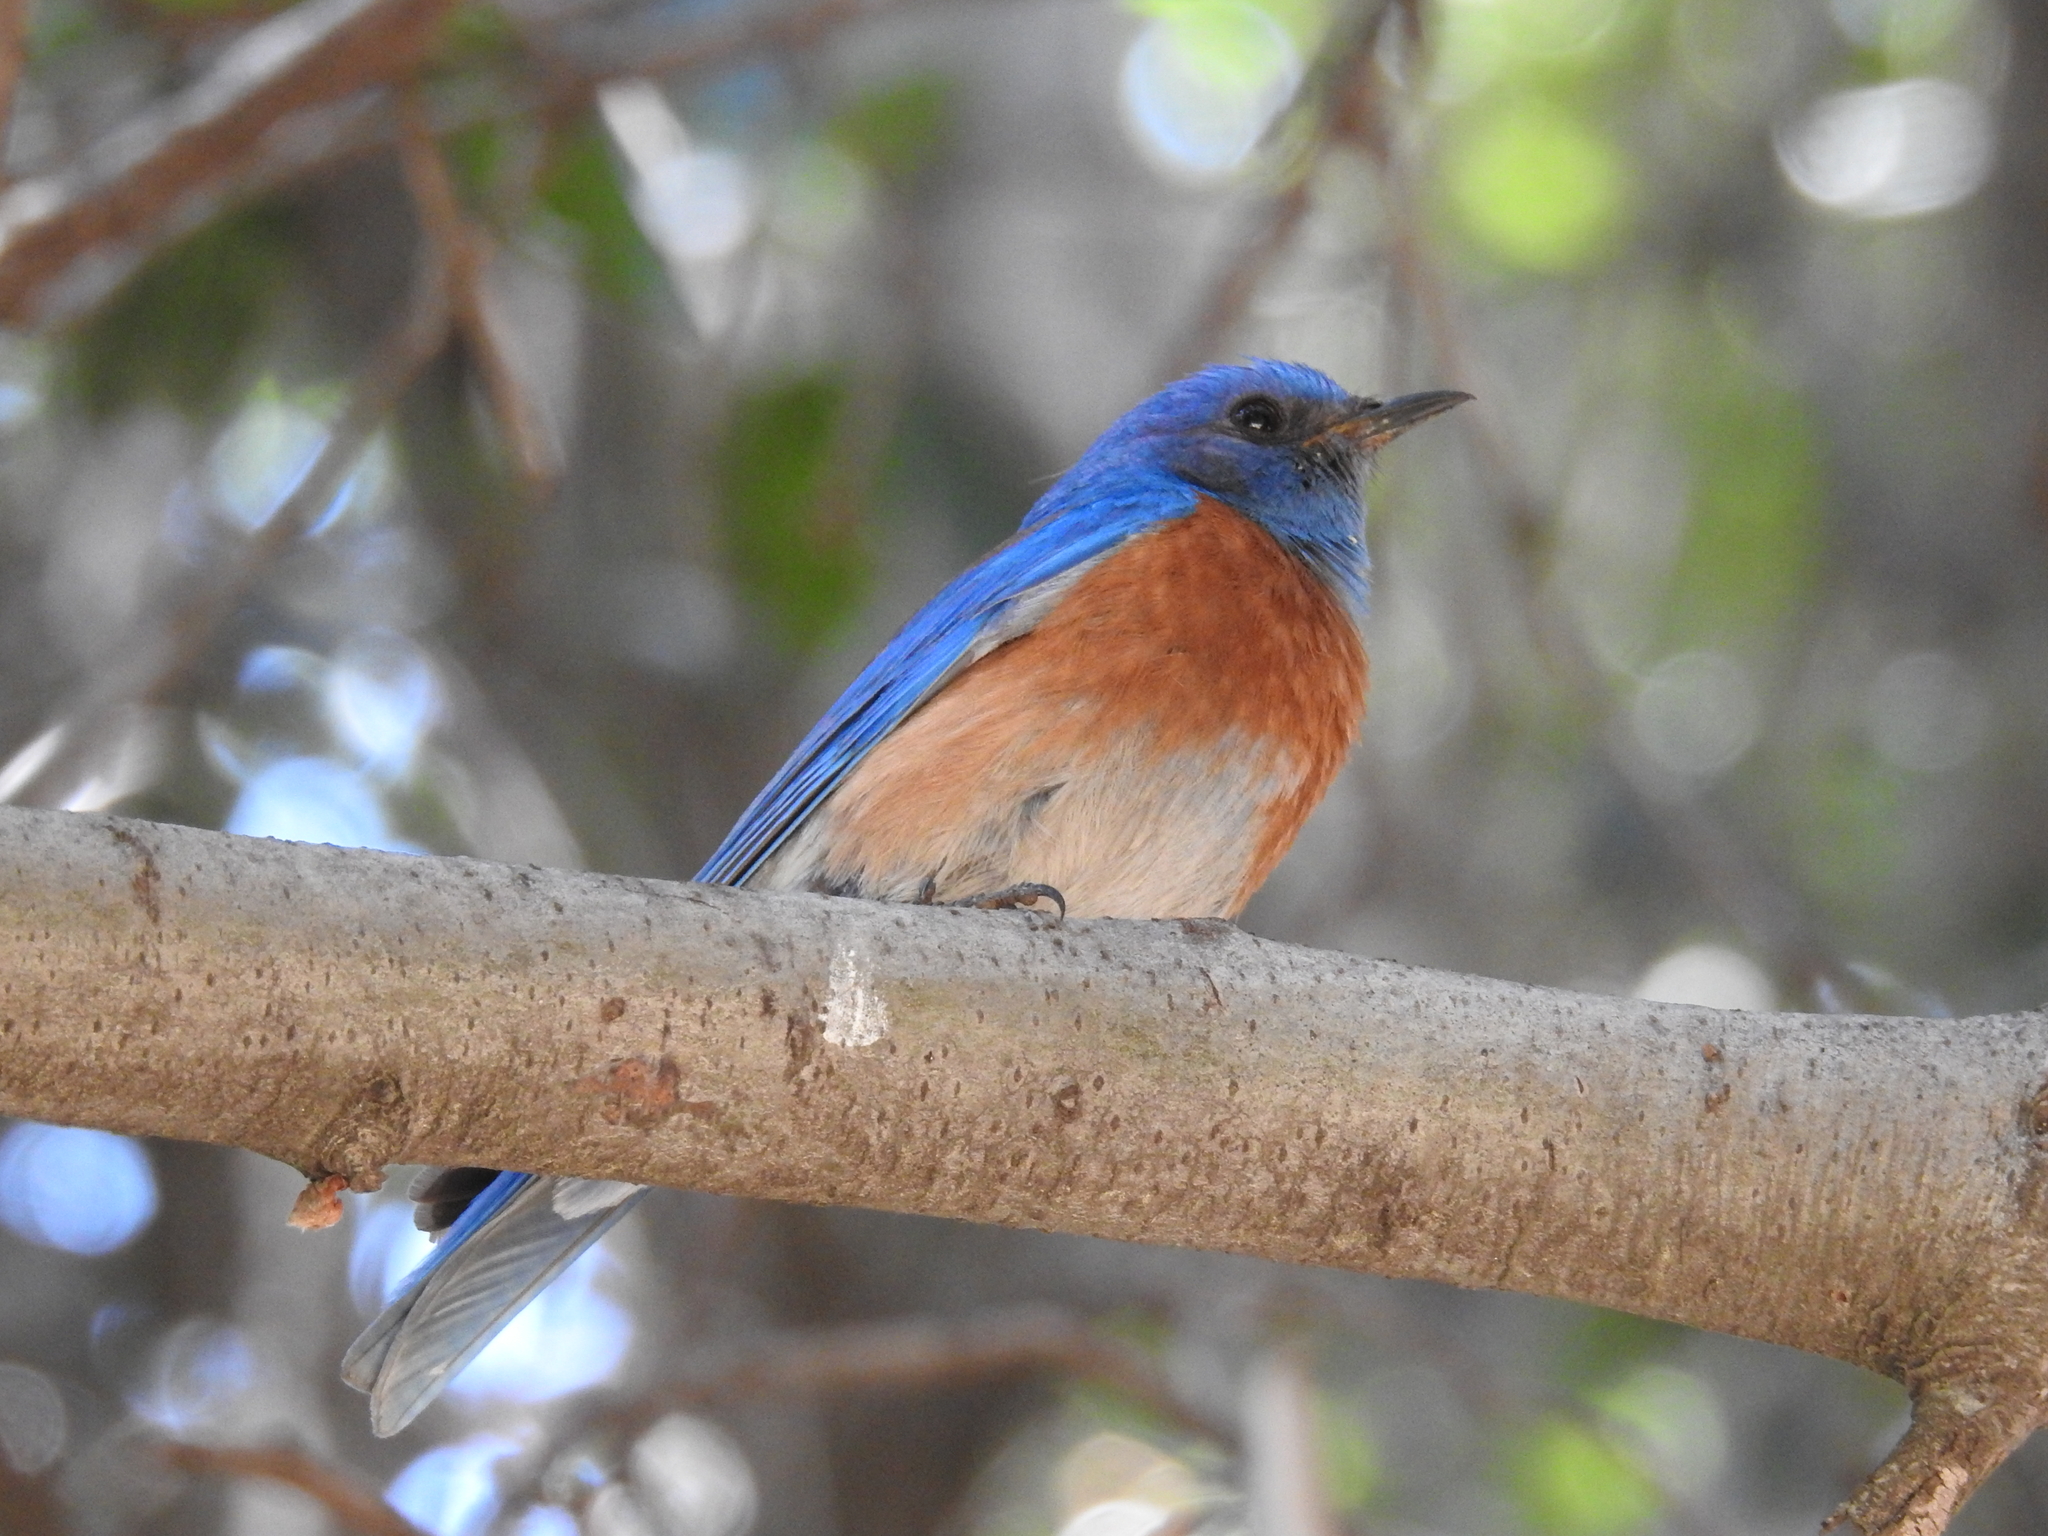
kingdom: Animalia
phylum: Chordata
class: Aves
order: Passeriformes
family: Turdidae
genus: Sialia
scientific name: Sialia mexicana
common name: Western bluebird
